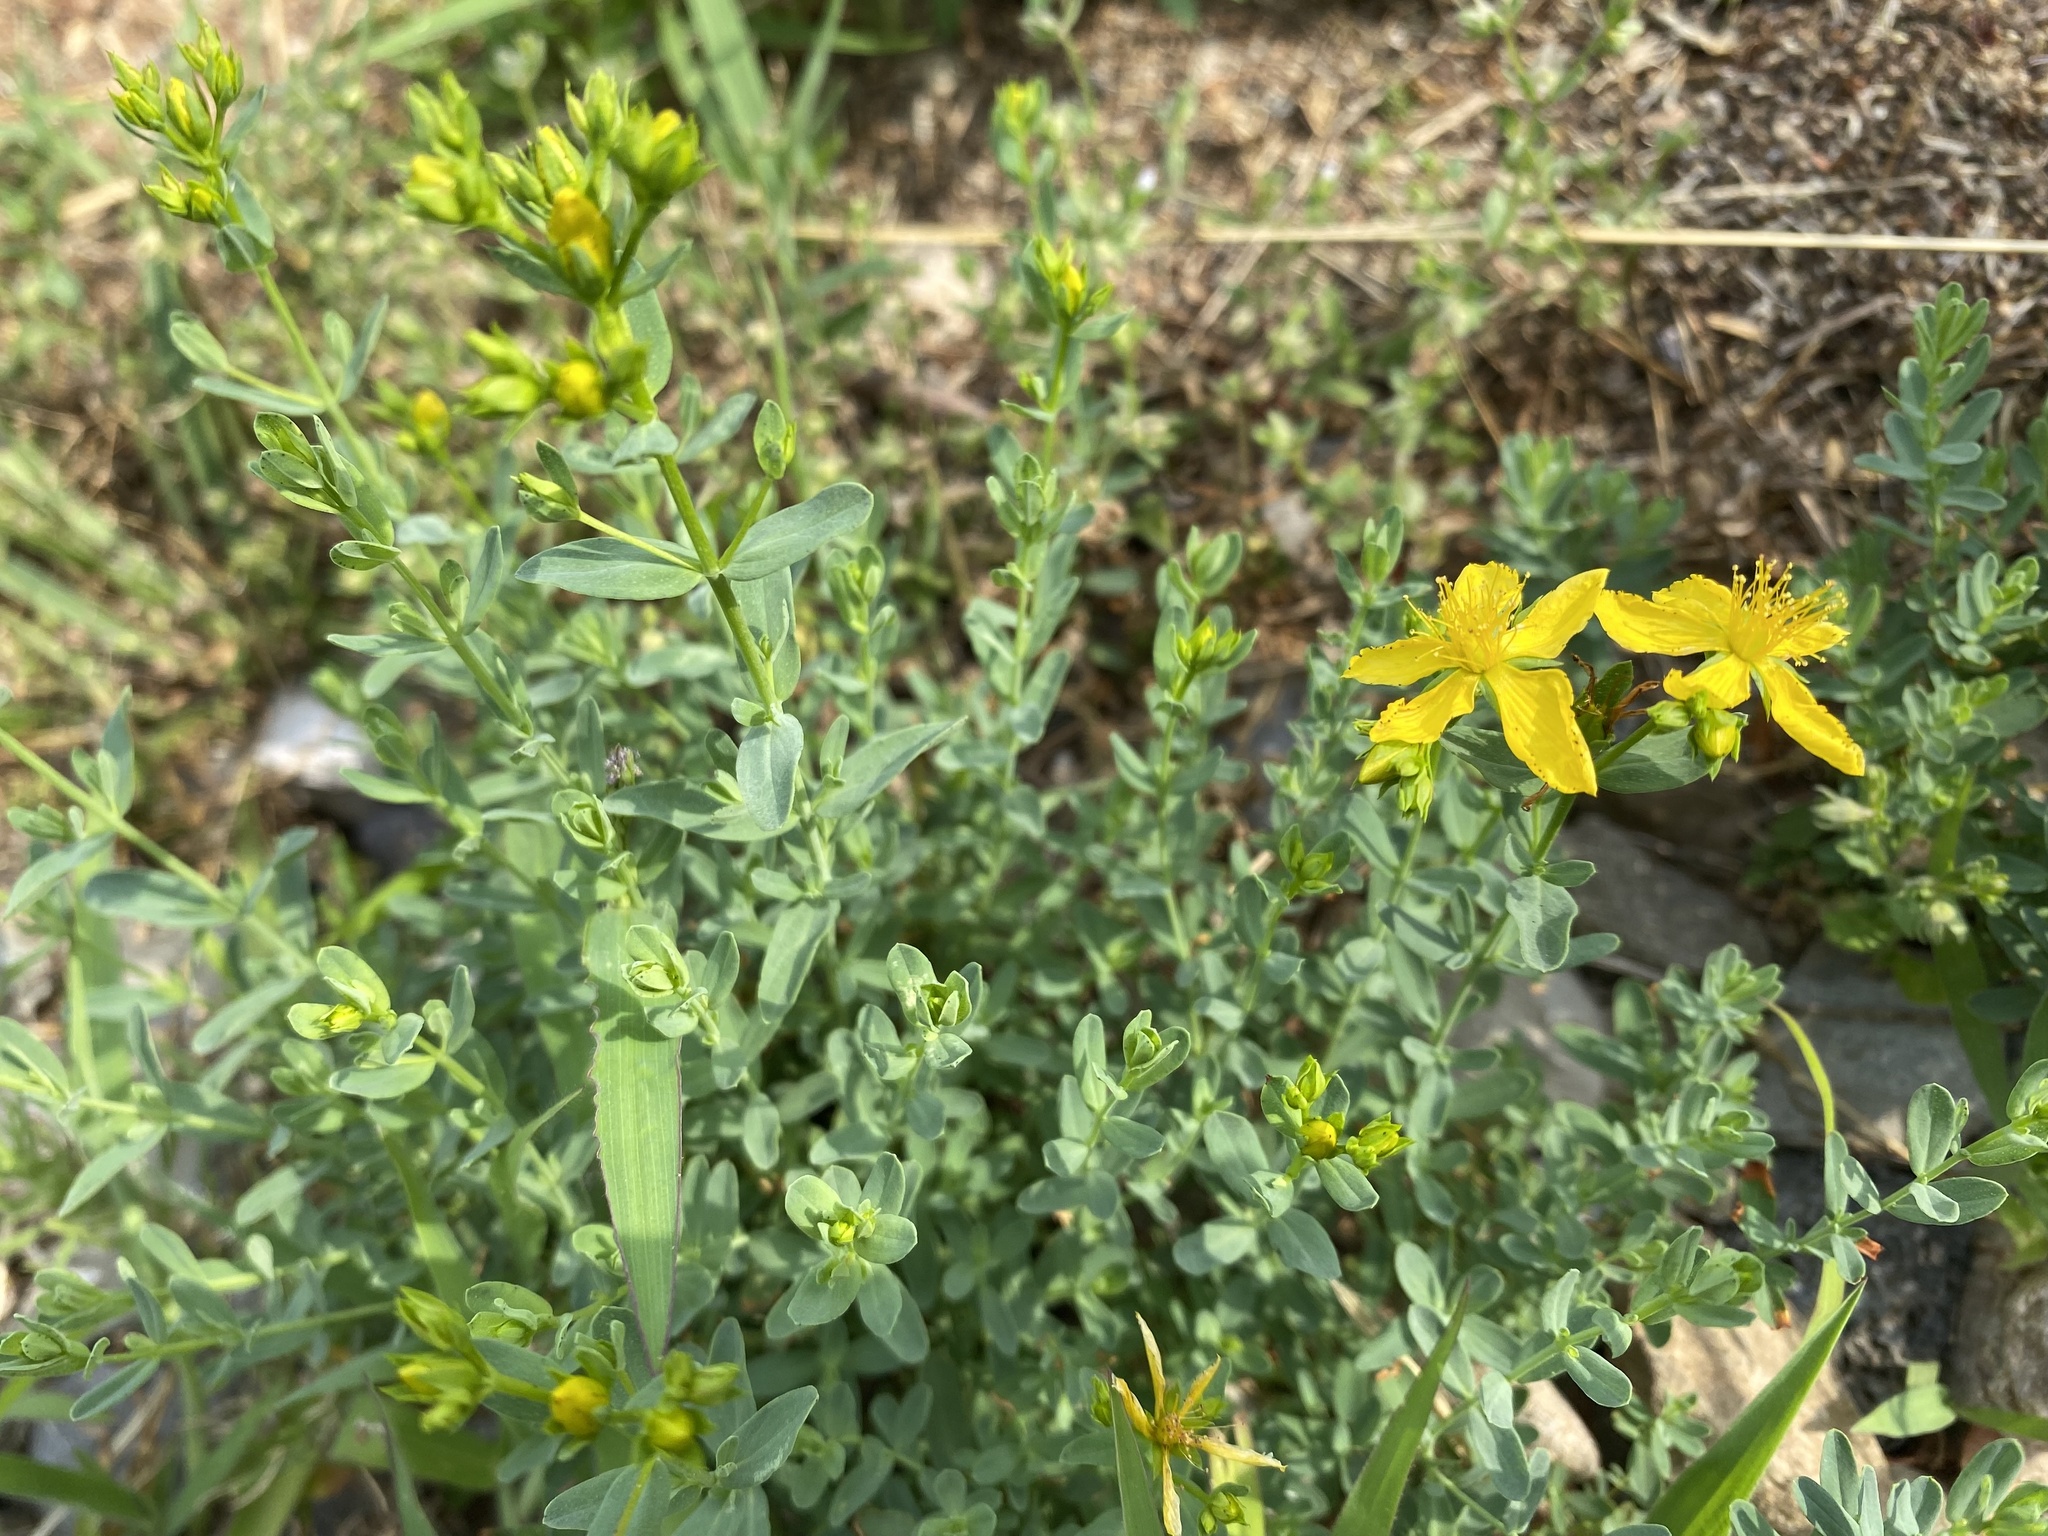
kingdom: Plantae
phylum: Tracheophyta
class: Magnoliopsida
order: Malpighiales
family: Hypericaceae
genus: Hypericum
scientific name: Hypericum perforatum
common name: Common st. johnswort
